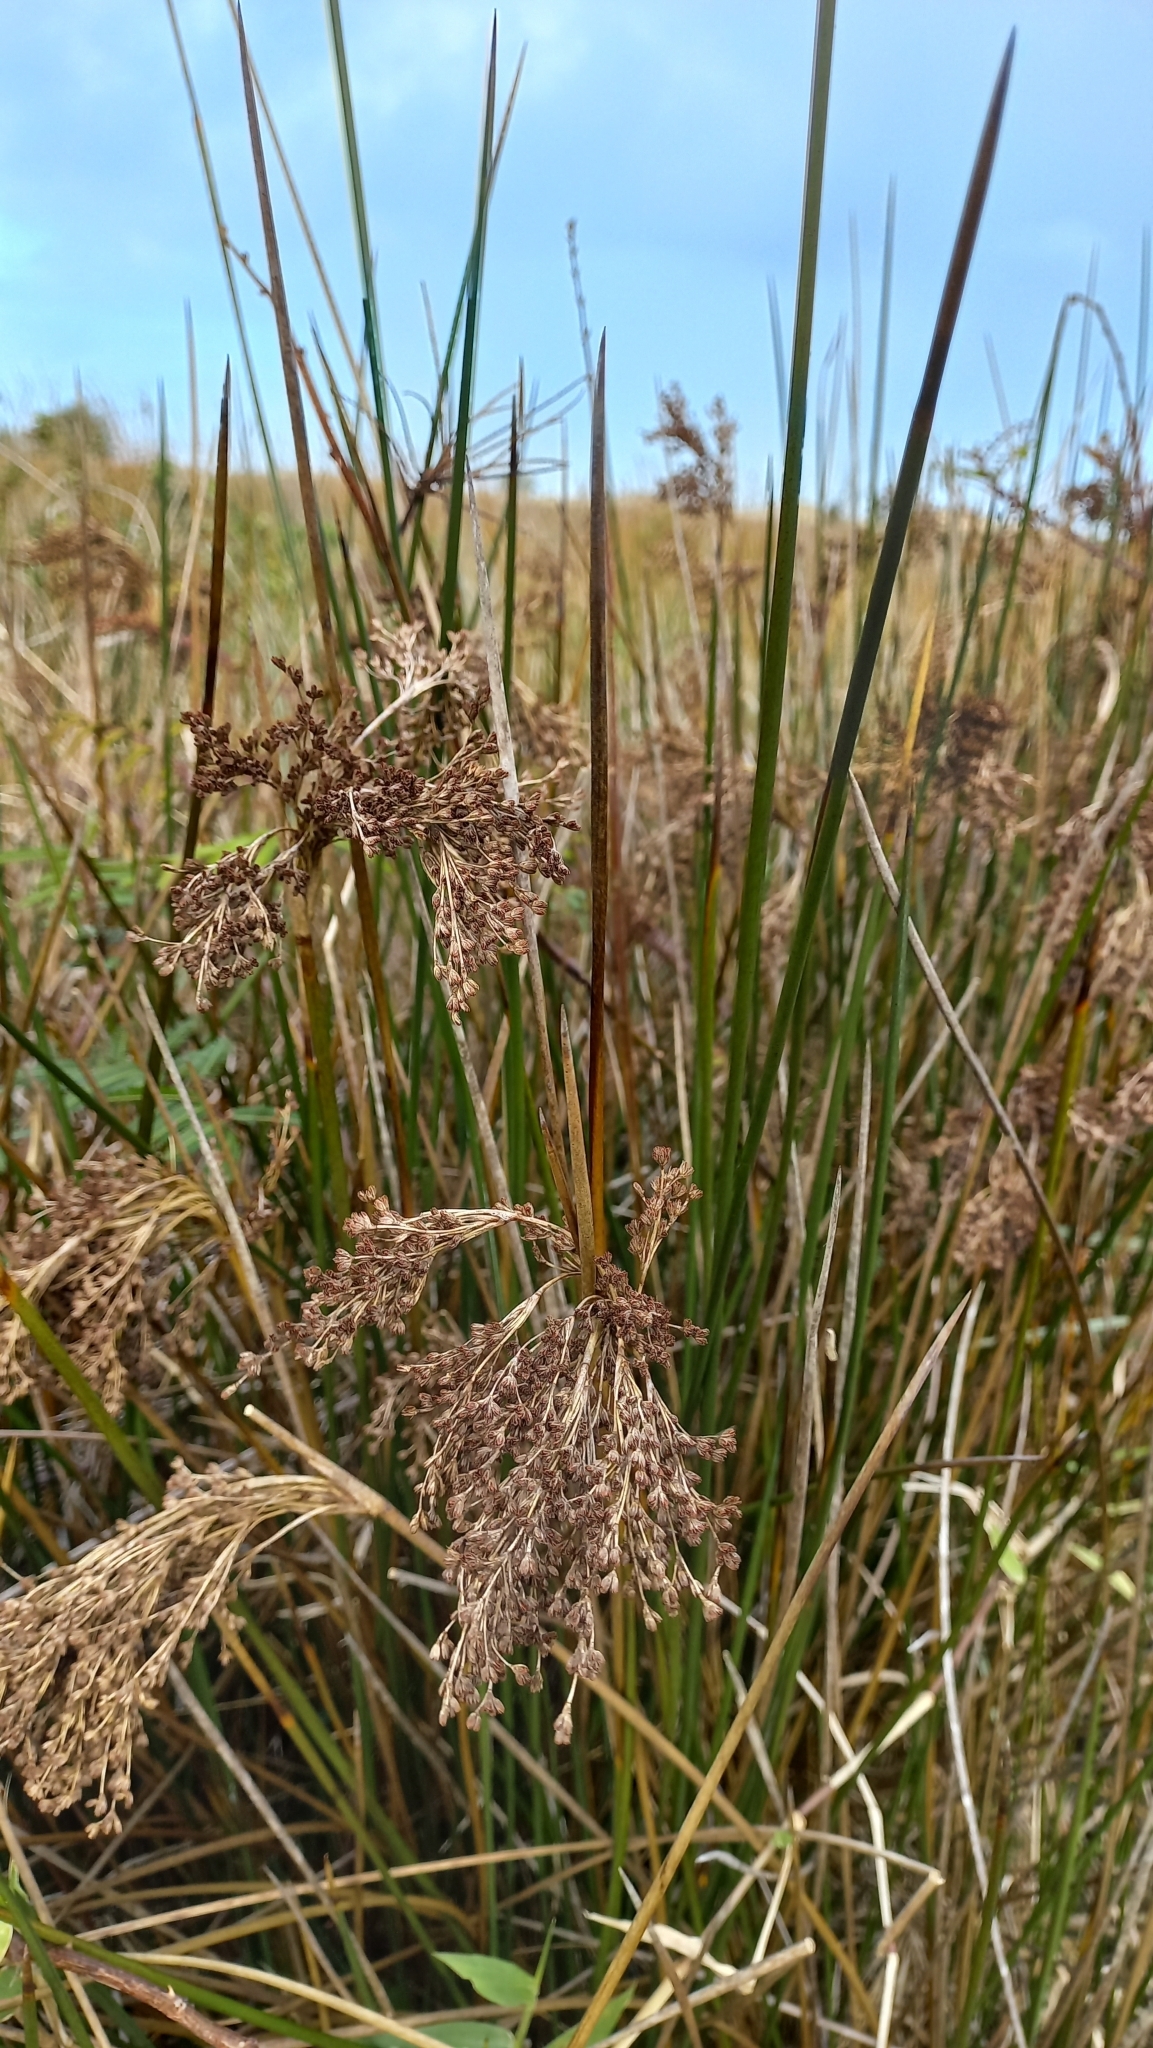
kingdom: Plantae
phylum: Tracheophyta
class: Liliopsida
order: Poales
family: Juncaceae
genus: Juncus
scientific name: Juncus kraussii
